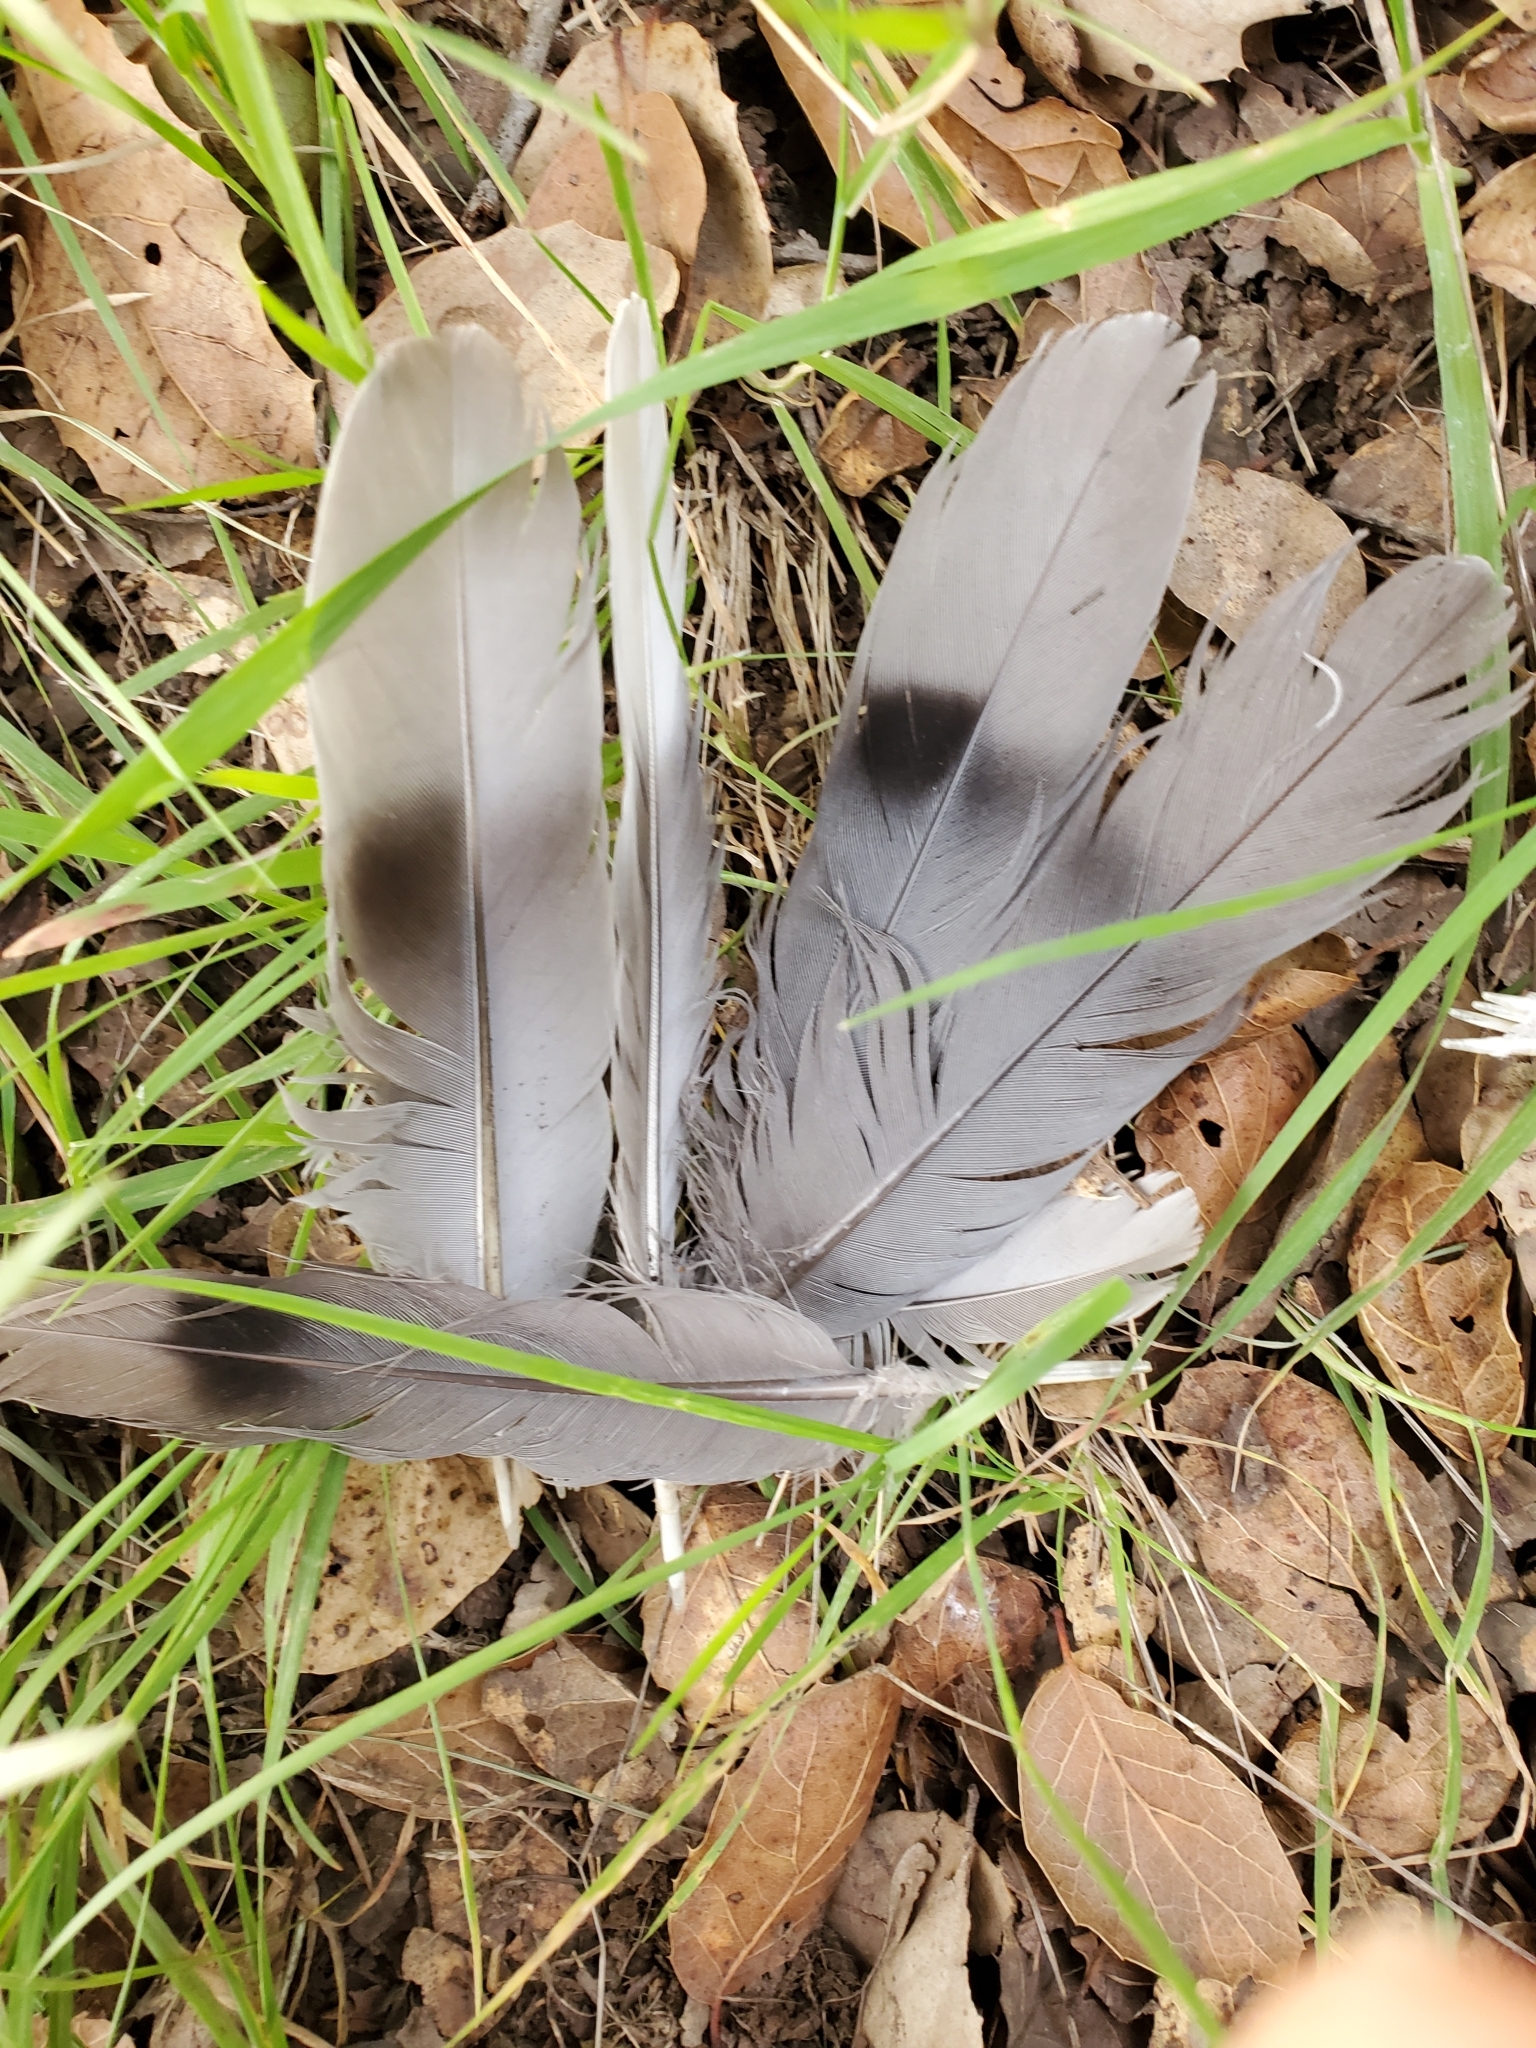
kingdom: Animalia
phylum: Chordata
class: Aves
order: Columbiformes
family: Columbidae
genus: Patagioenas
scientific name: Patagioenas fasciata
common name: Band-tailed pigeon
